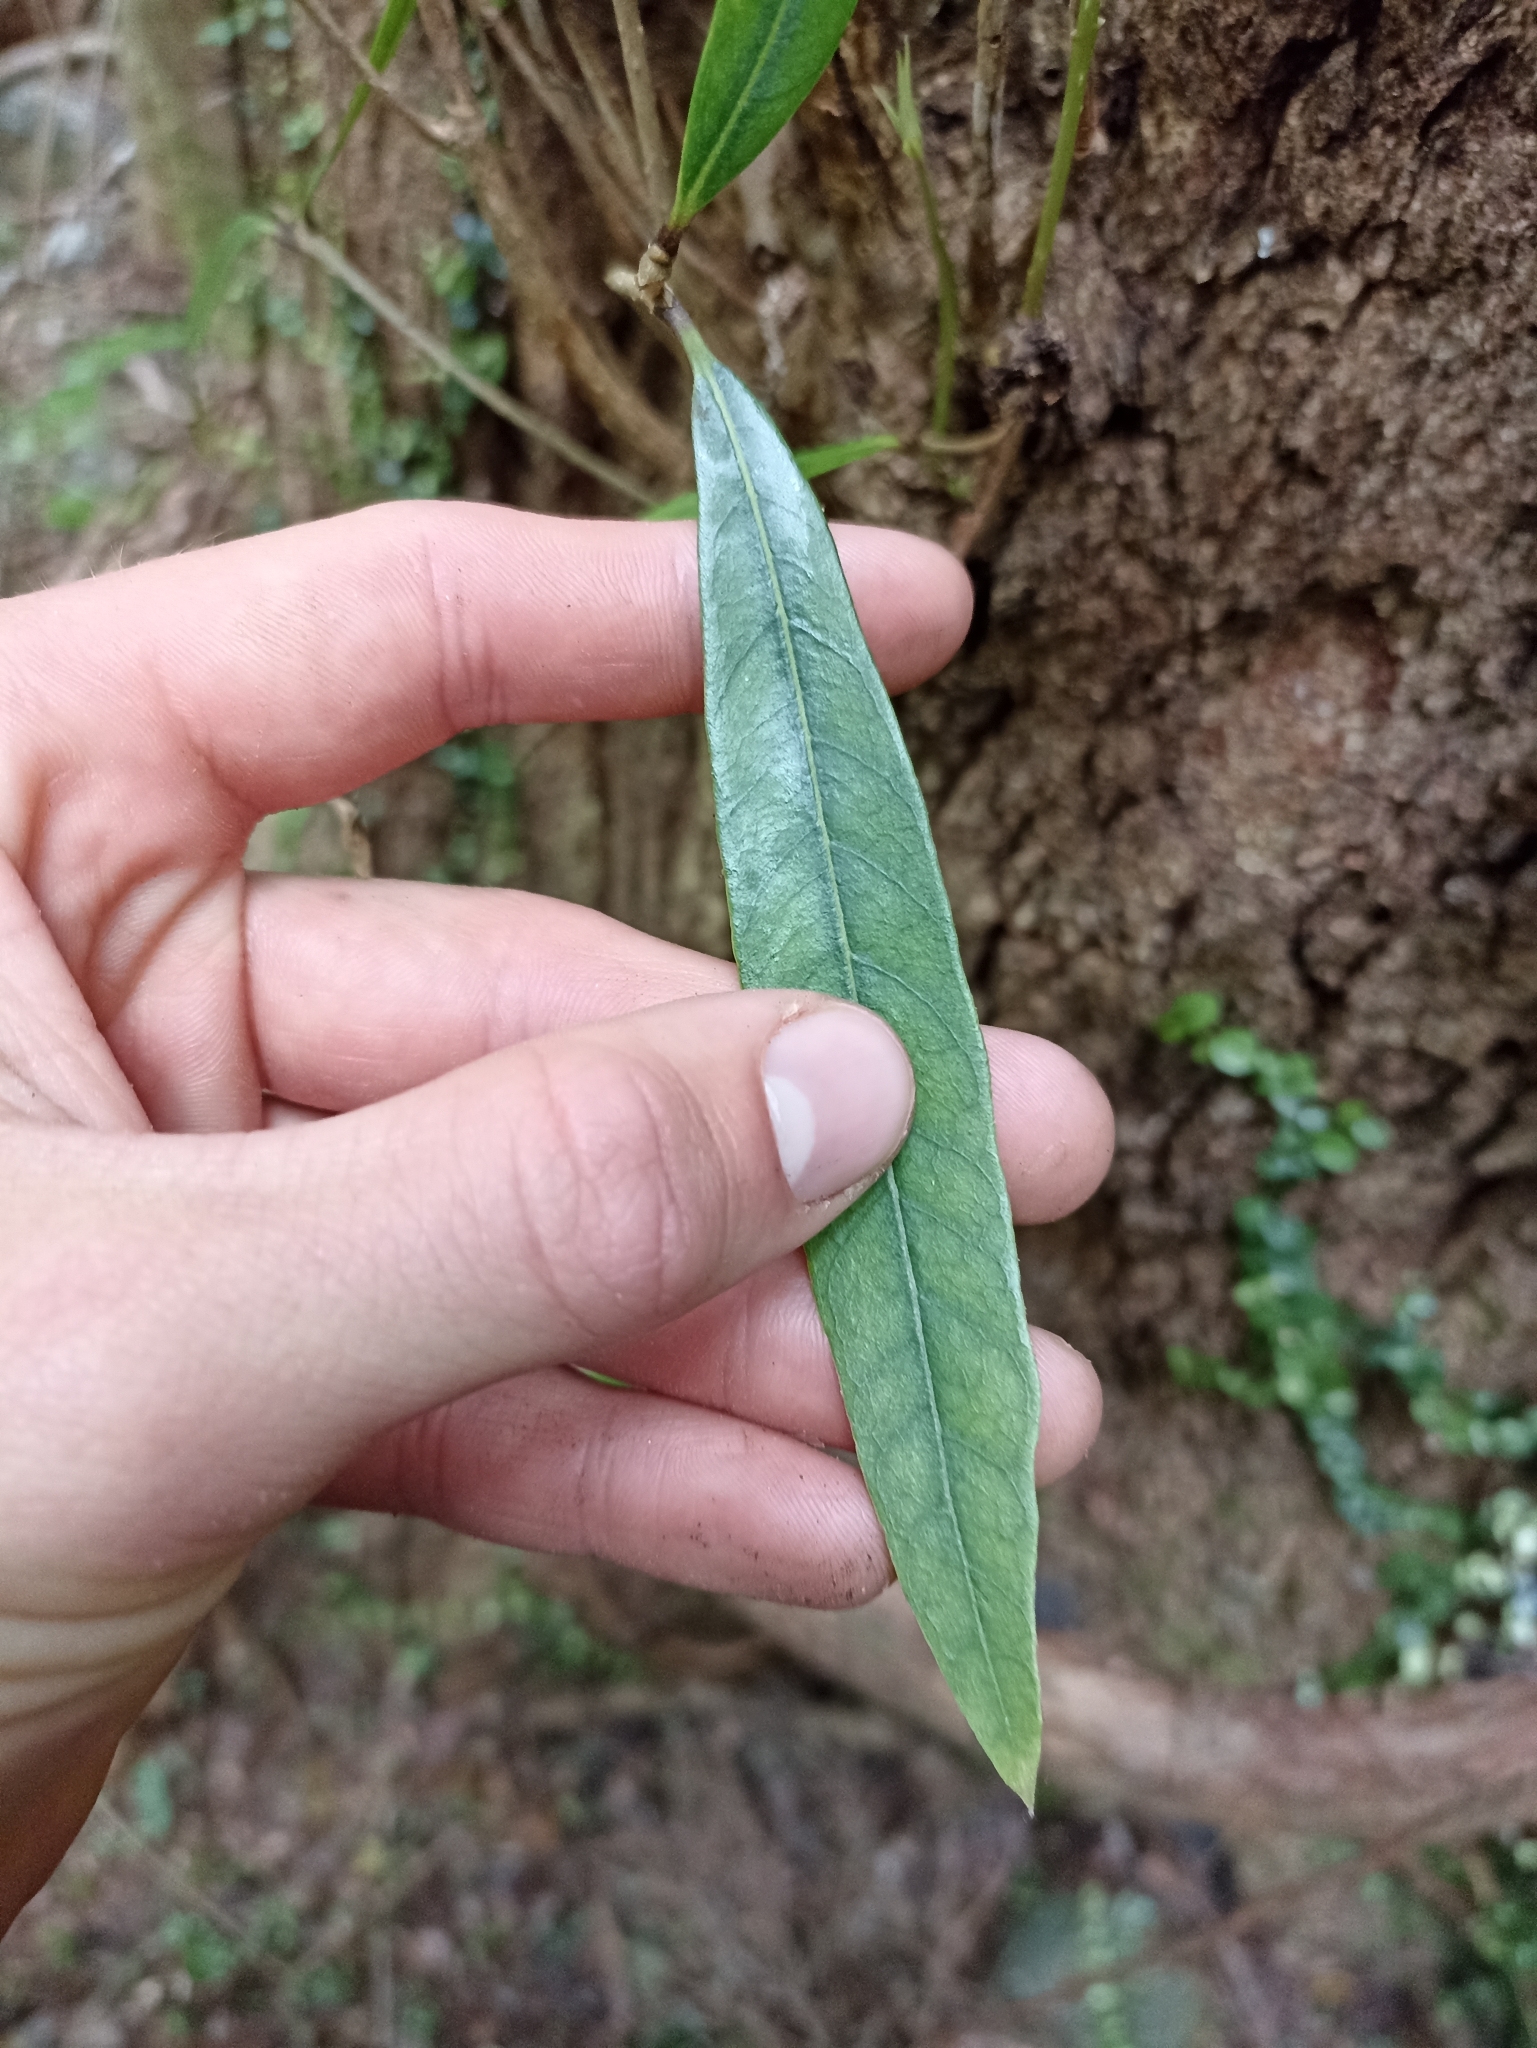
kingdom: Plantae
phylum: Tracheophyta
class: Magnoliopsida
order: Lamiales
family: Oleaceae
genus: Nestegis
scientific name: Nestegis cunninghamii
